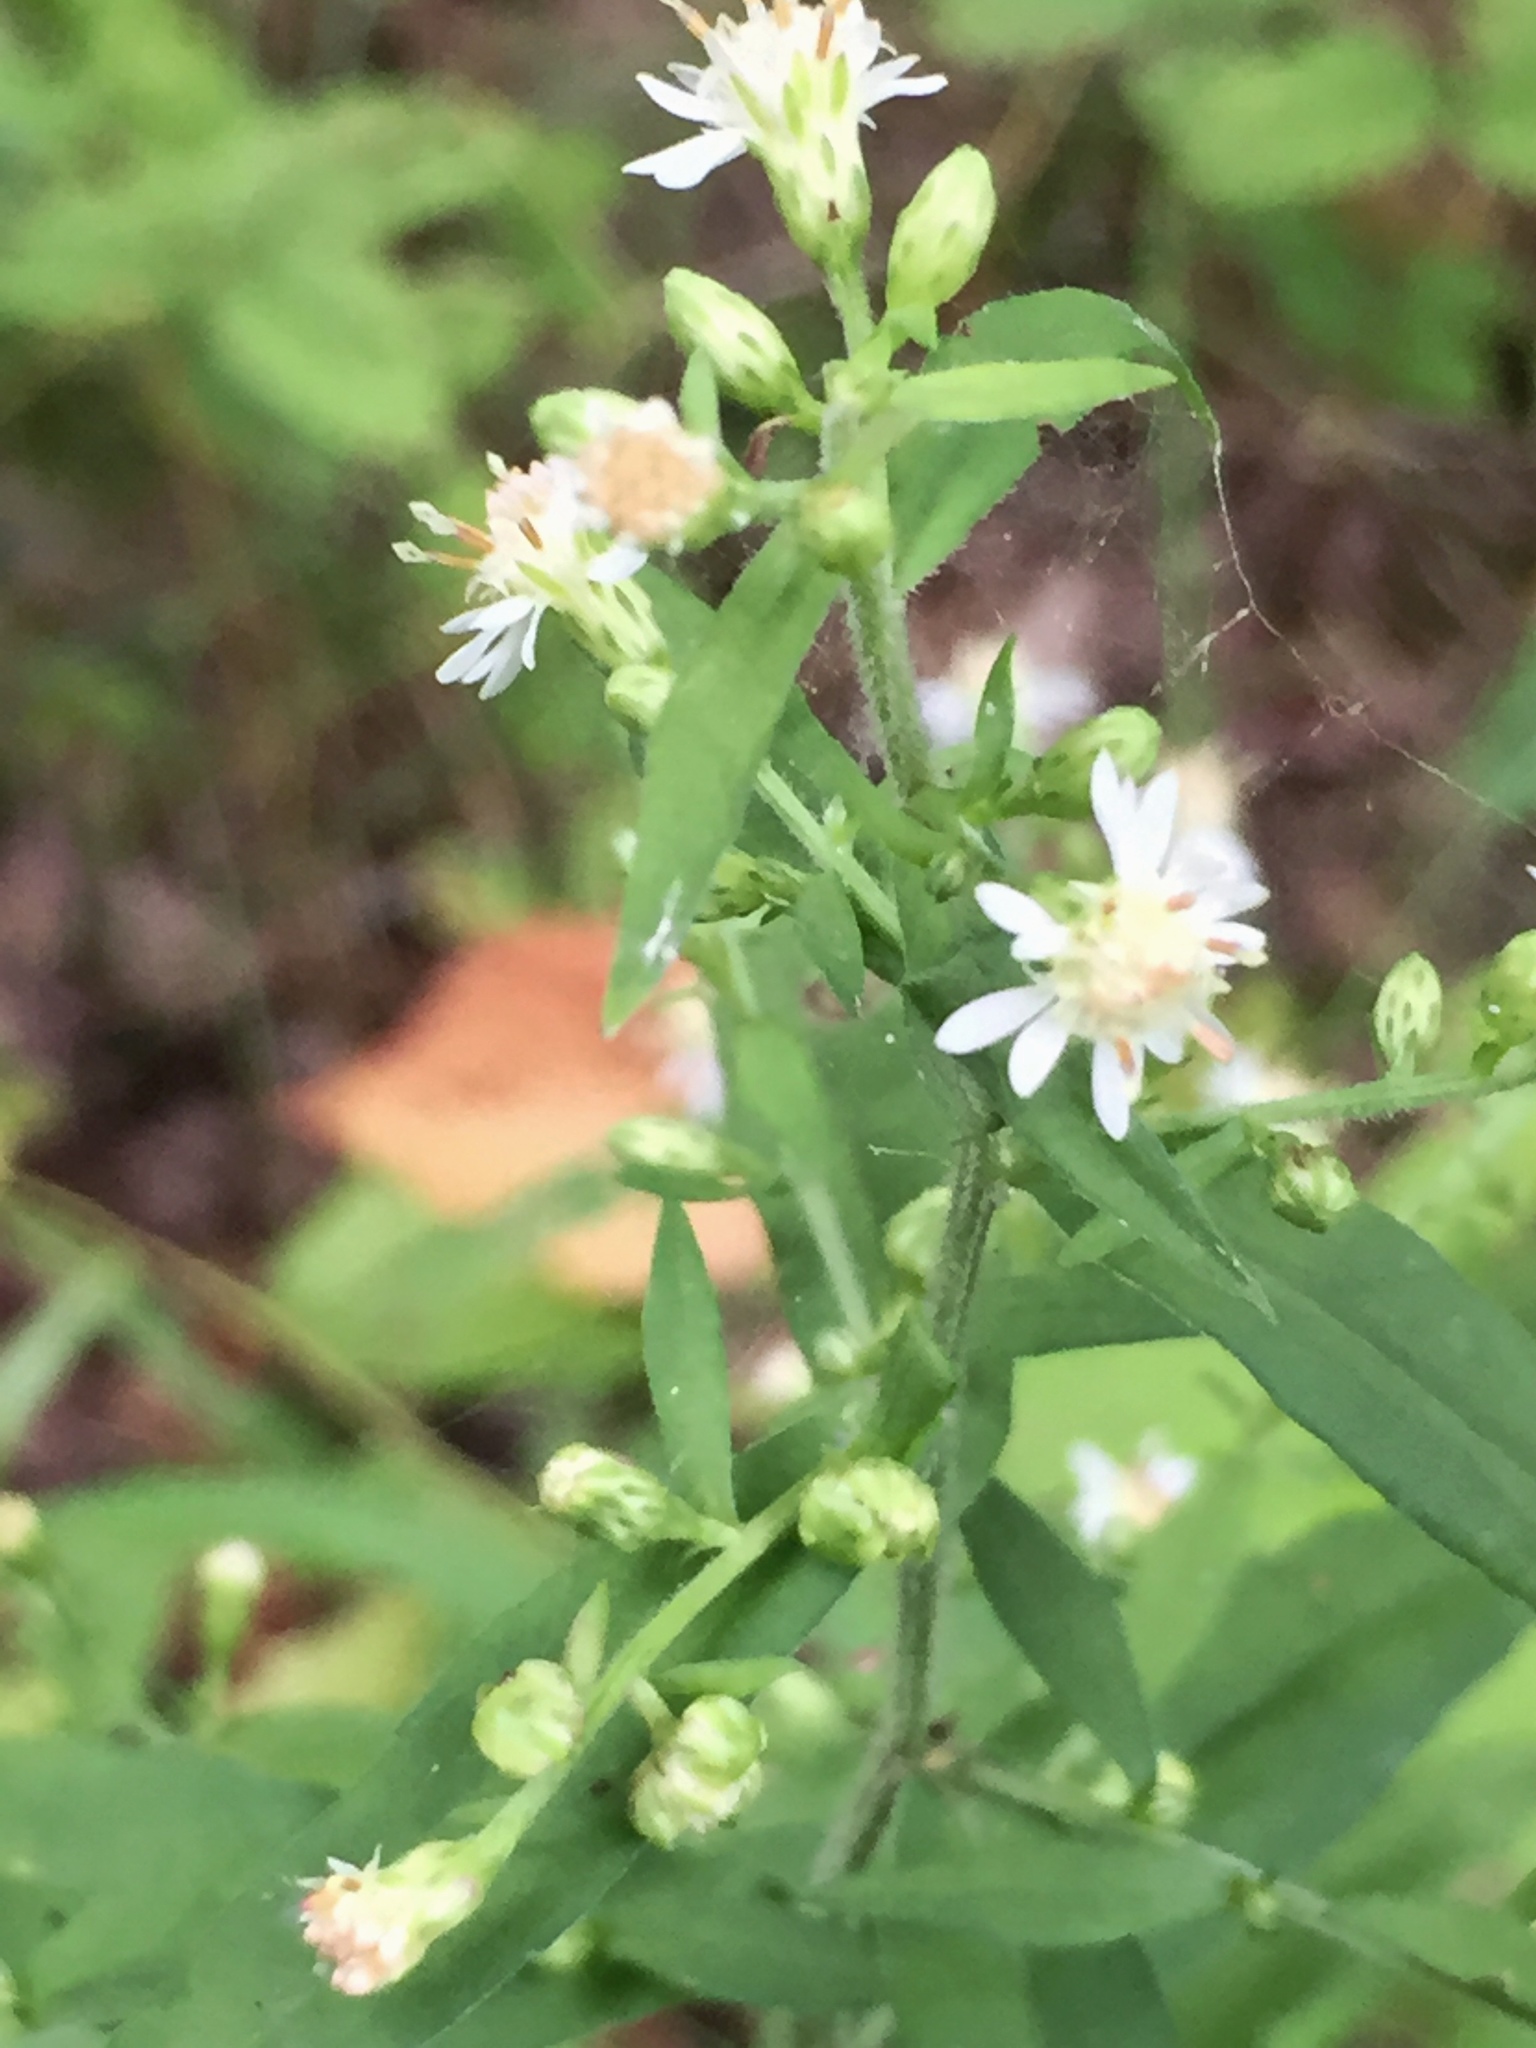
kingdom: Plantae
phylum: Tracheophyta
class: Magnoliopsida
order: Asterales
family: Asteraceae
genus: Symphyotrichum
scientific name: Symphyotrichum lateriflorum
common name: Calico aster
